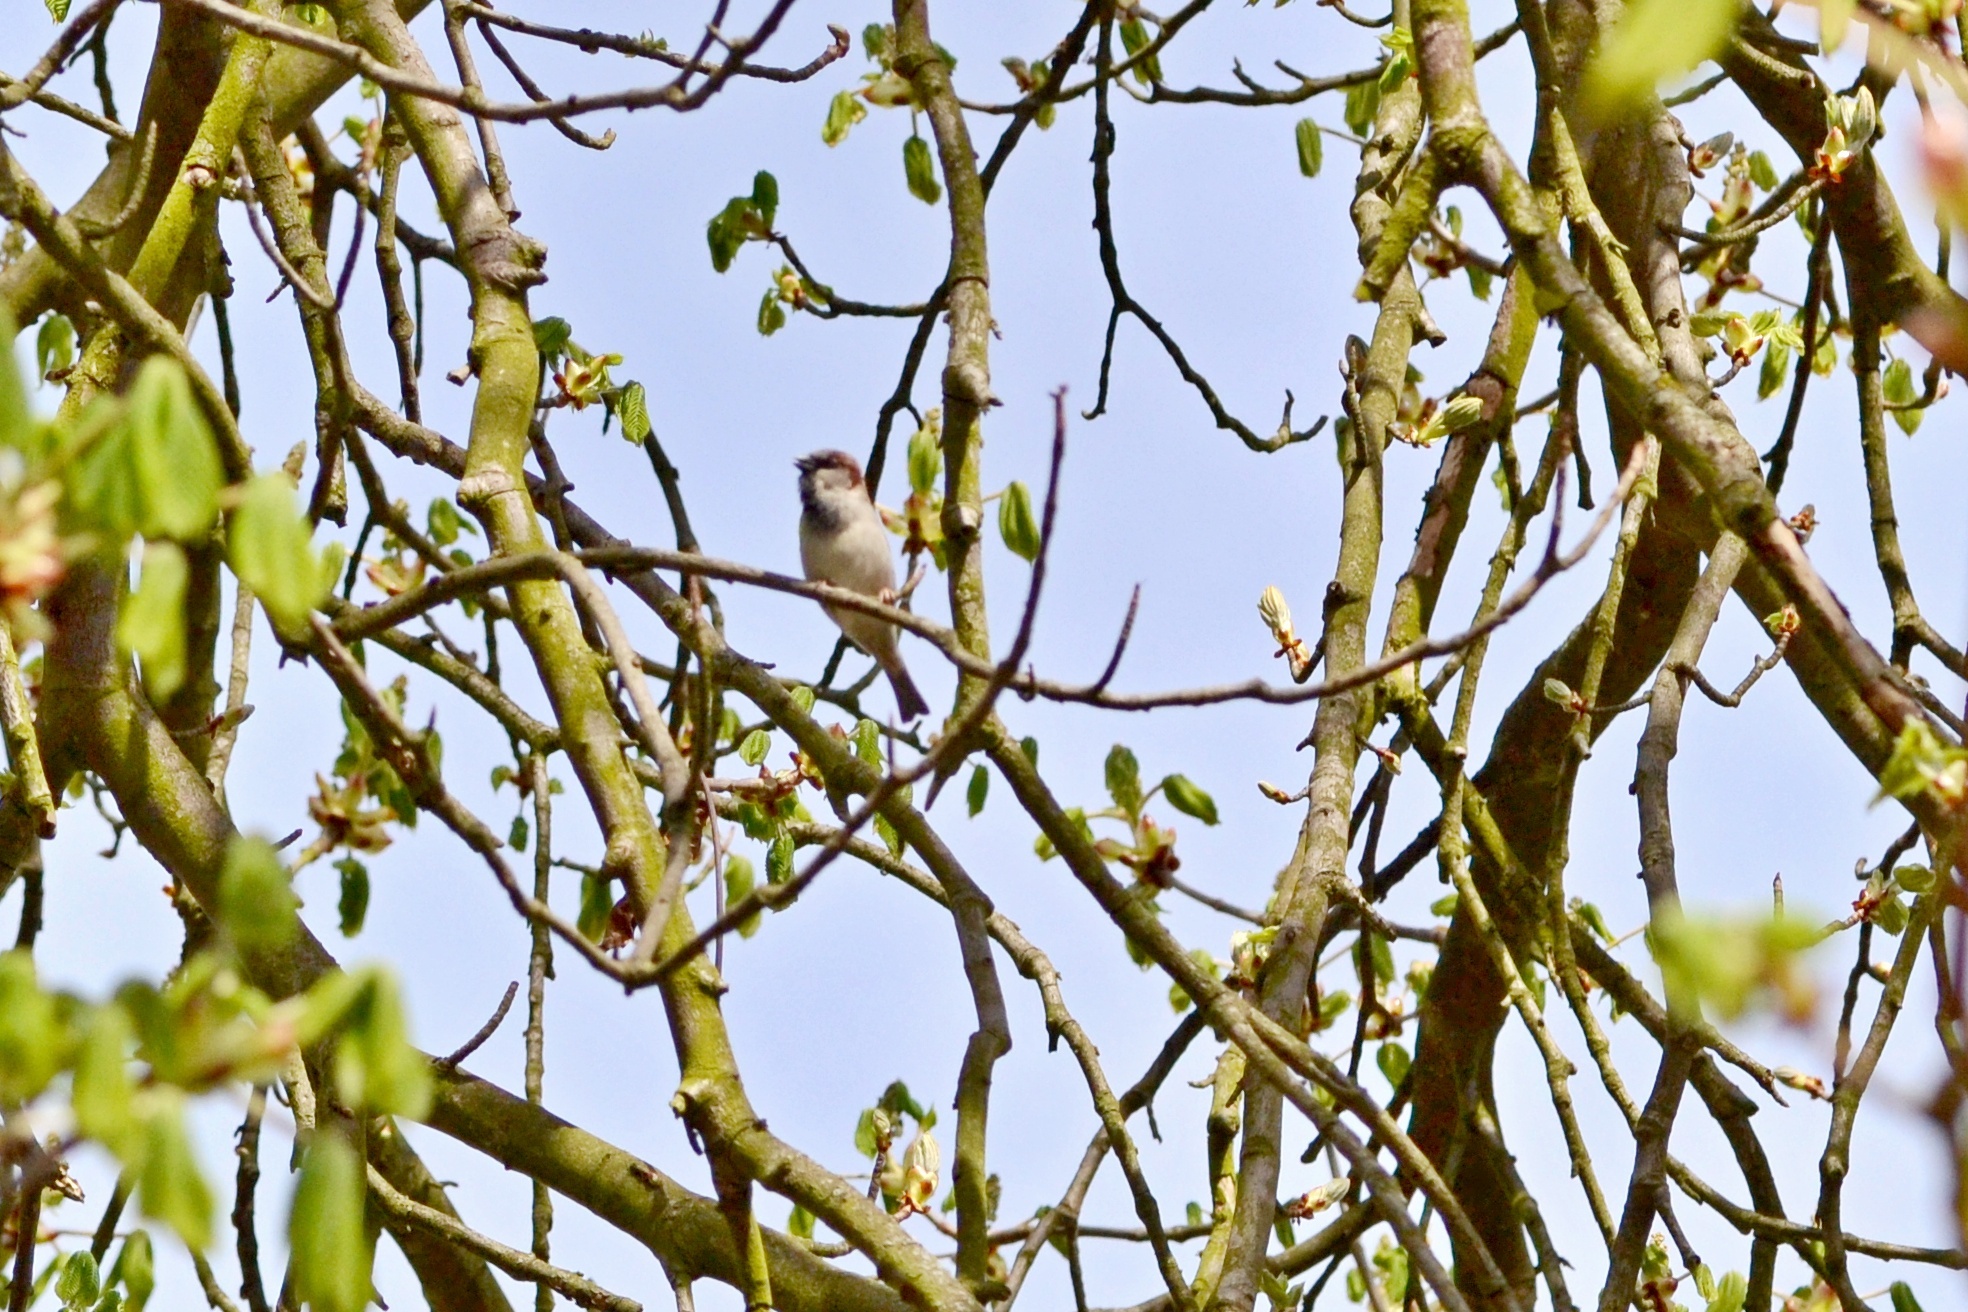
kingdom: Animalia
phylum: Chordata
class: Aves
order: Passeriformes
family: Passeridae
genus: Passer
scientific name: Passer domesticus
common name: House sparrow
